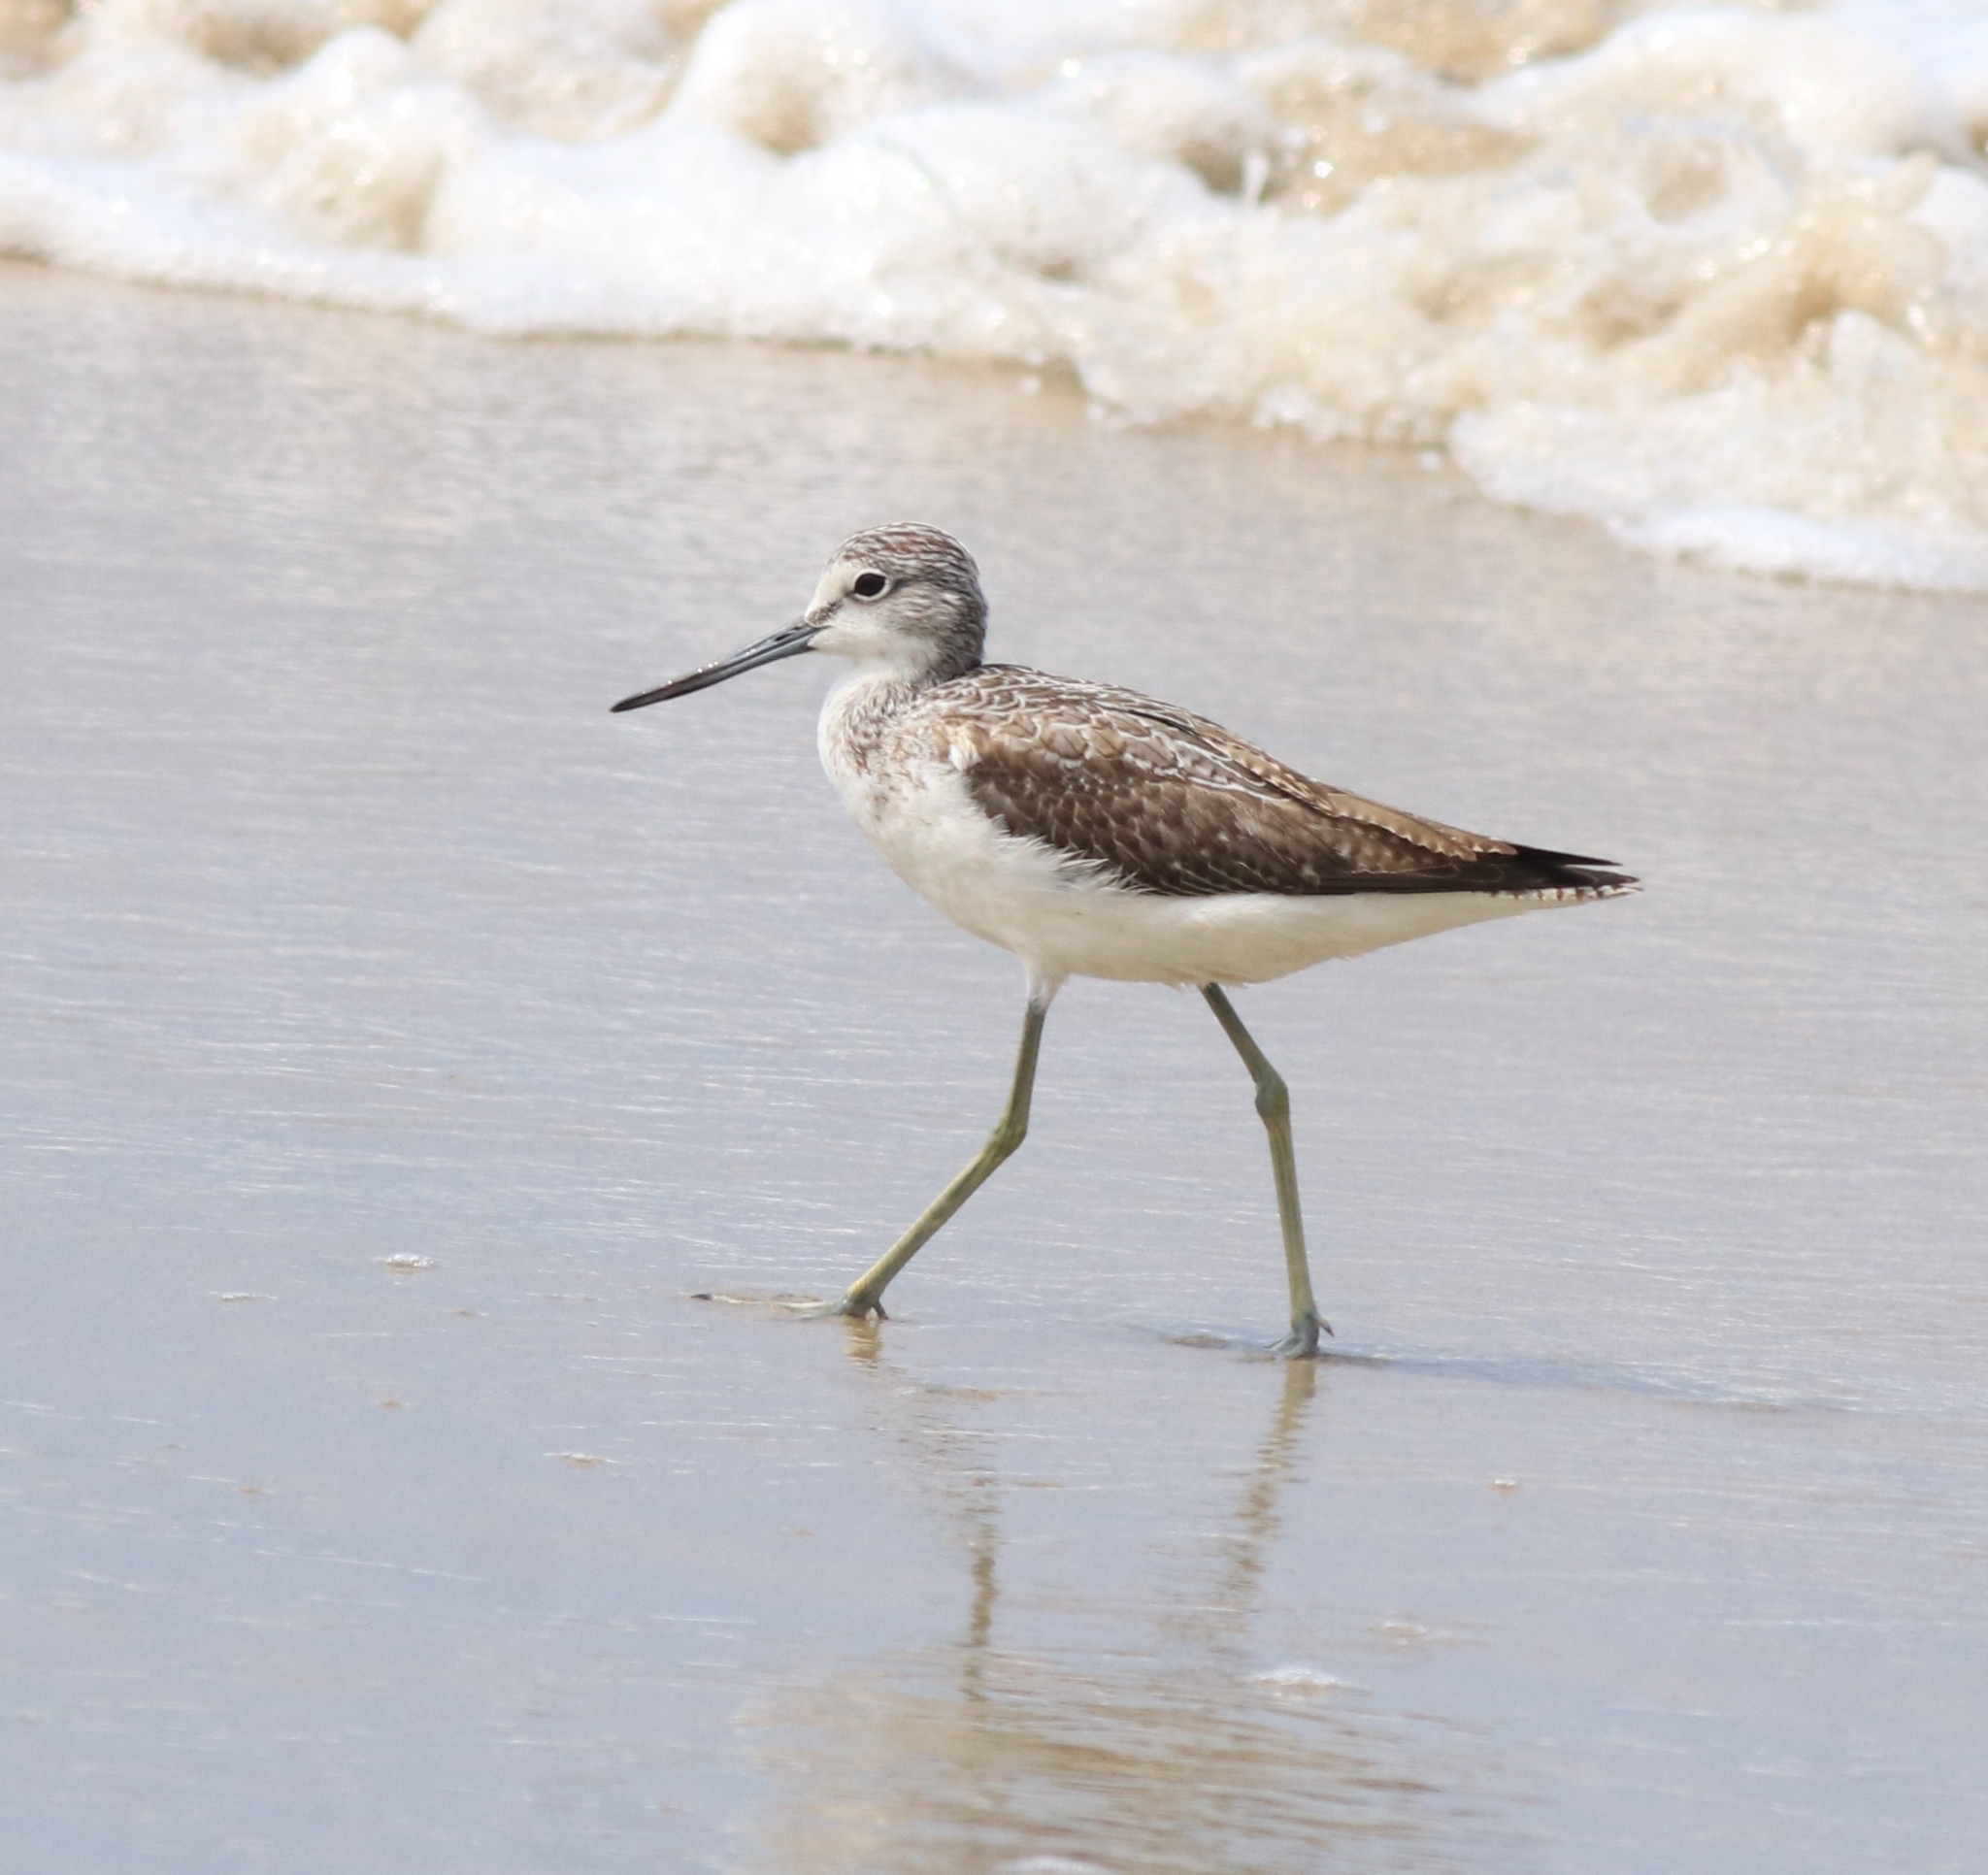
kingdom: Animalia
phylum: Chordata
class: Aves
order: Charadriiformes
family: Scolopacidae
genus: Tringa
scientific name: Tringa nebularia
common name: Common greenshank
